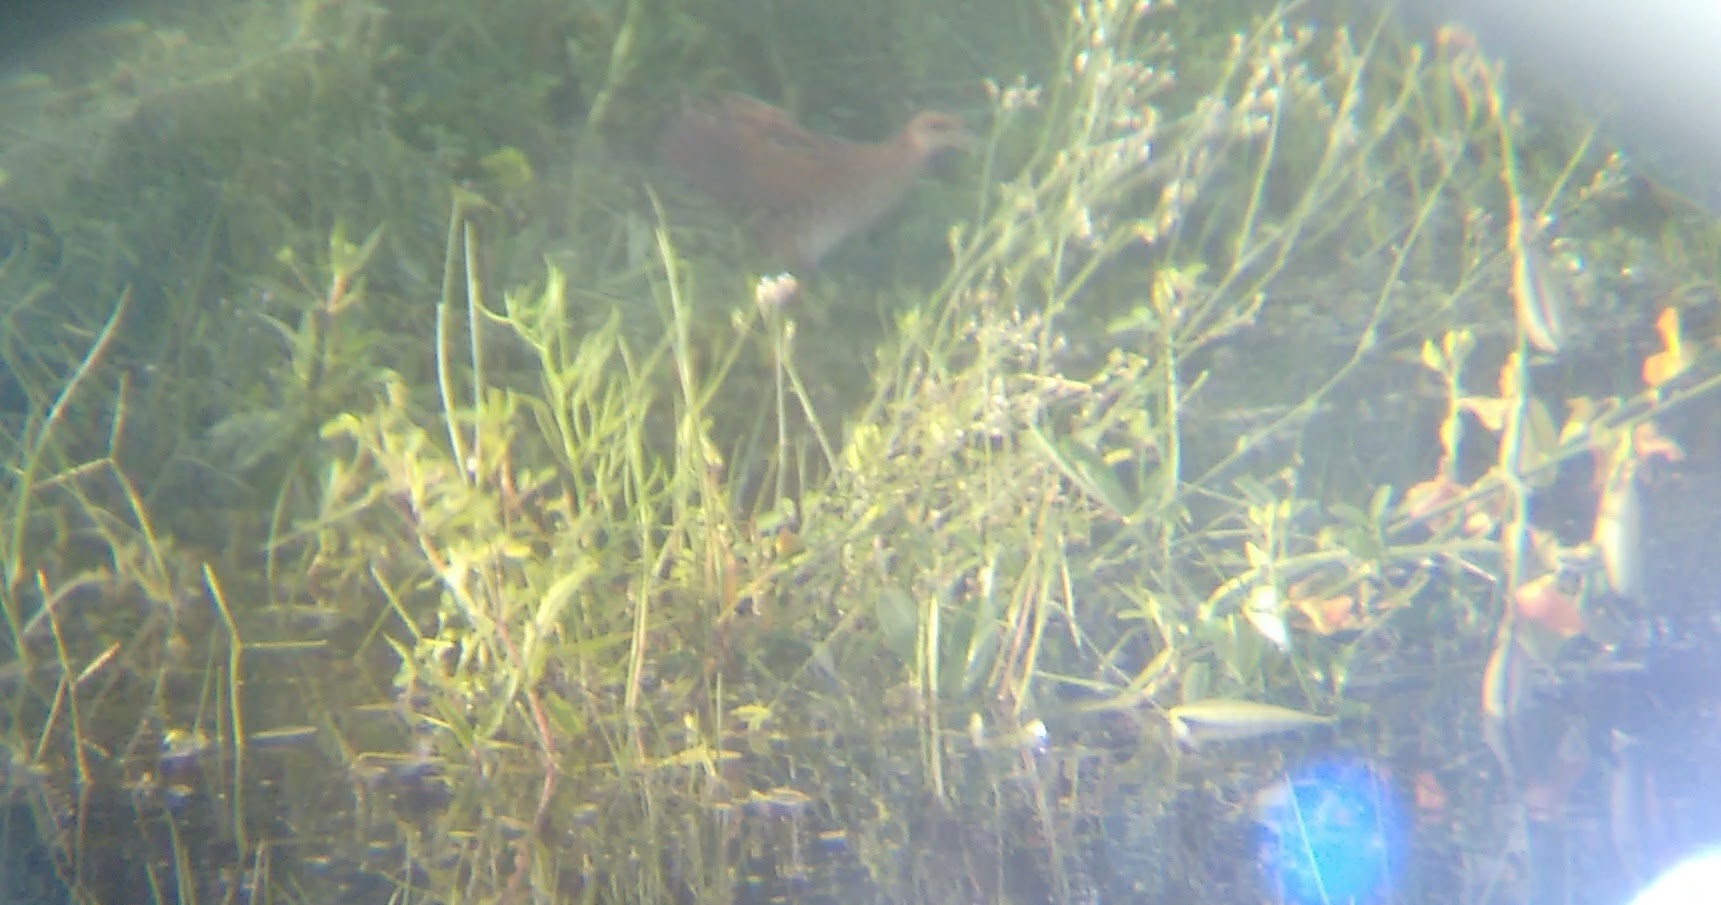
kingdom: Animalia
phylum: Chordata
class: Aves
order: Gruiformes
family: Rallidae
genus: Porzana
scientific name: Porzana pusilla
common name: Baillon's crake
